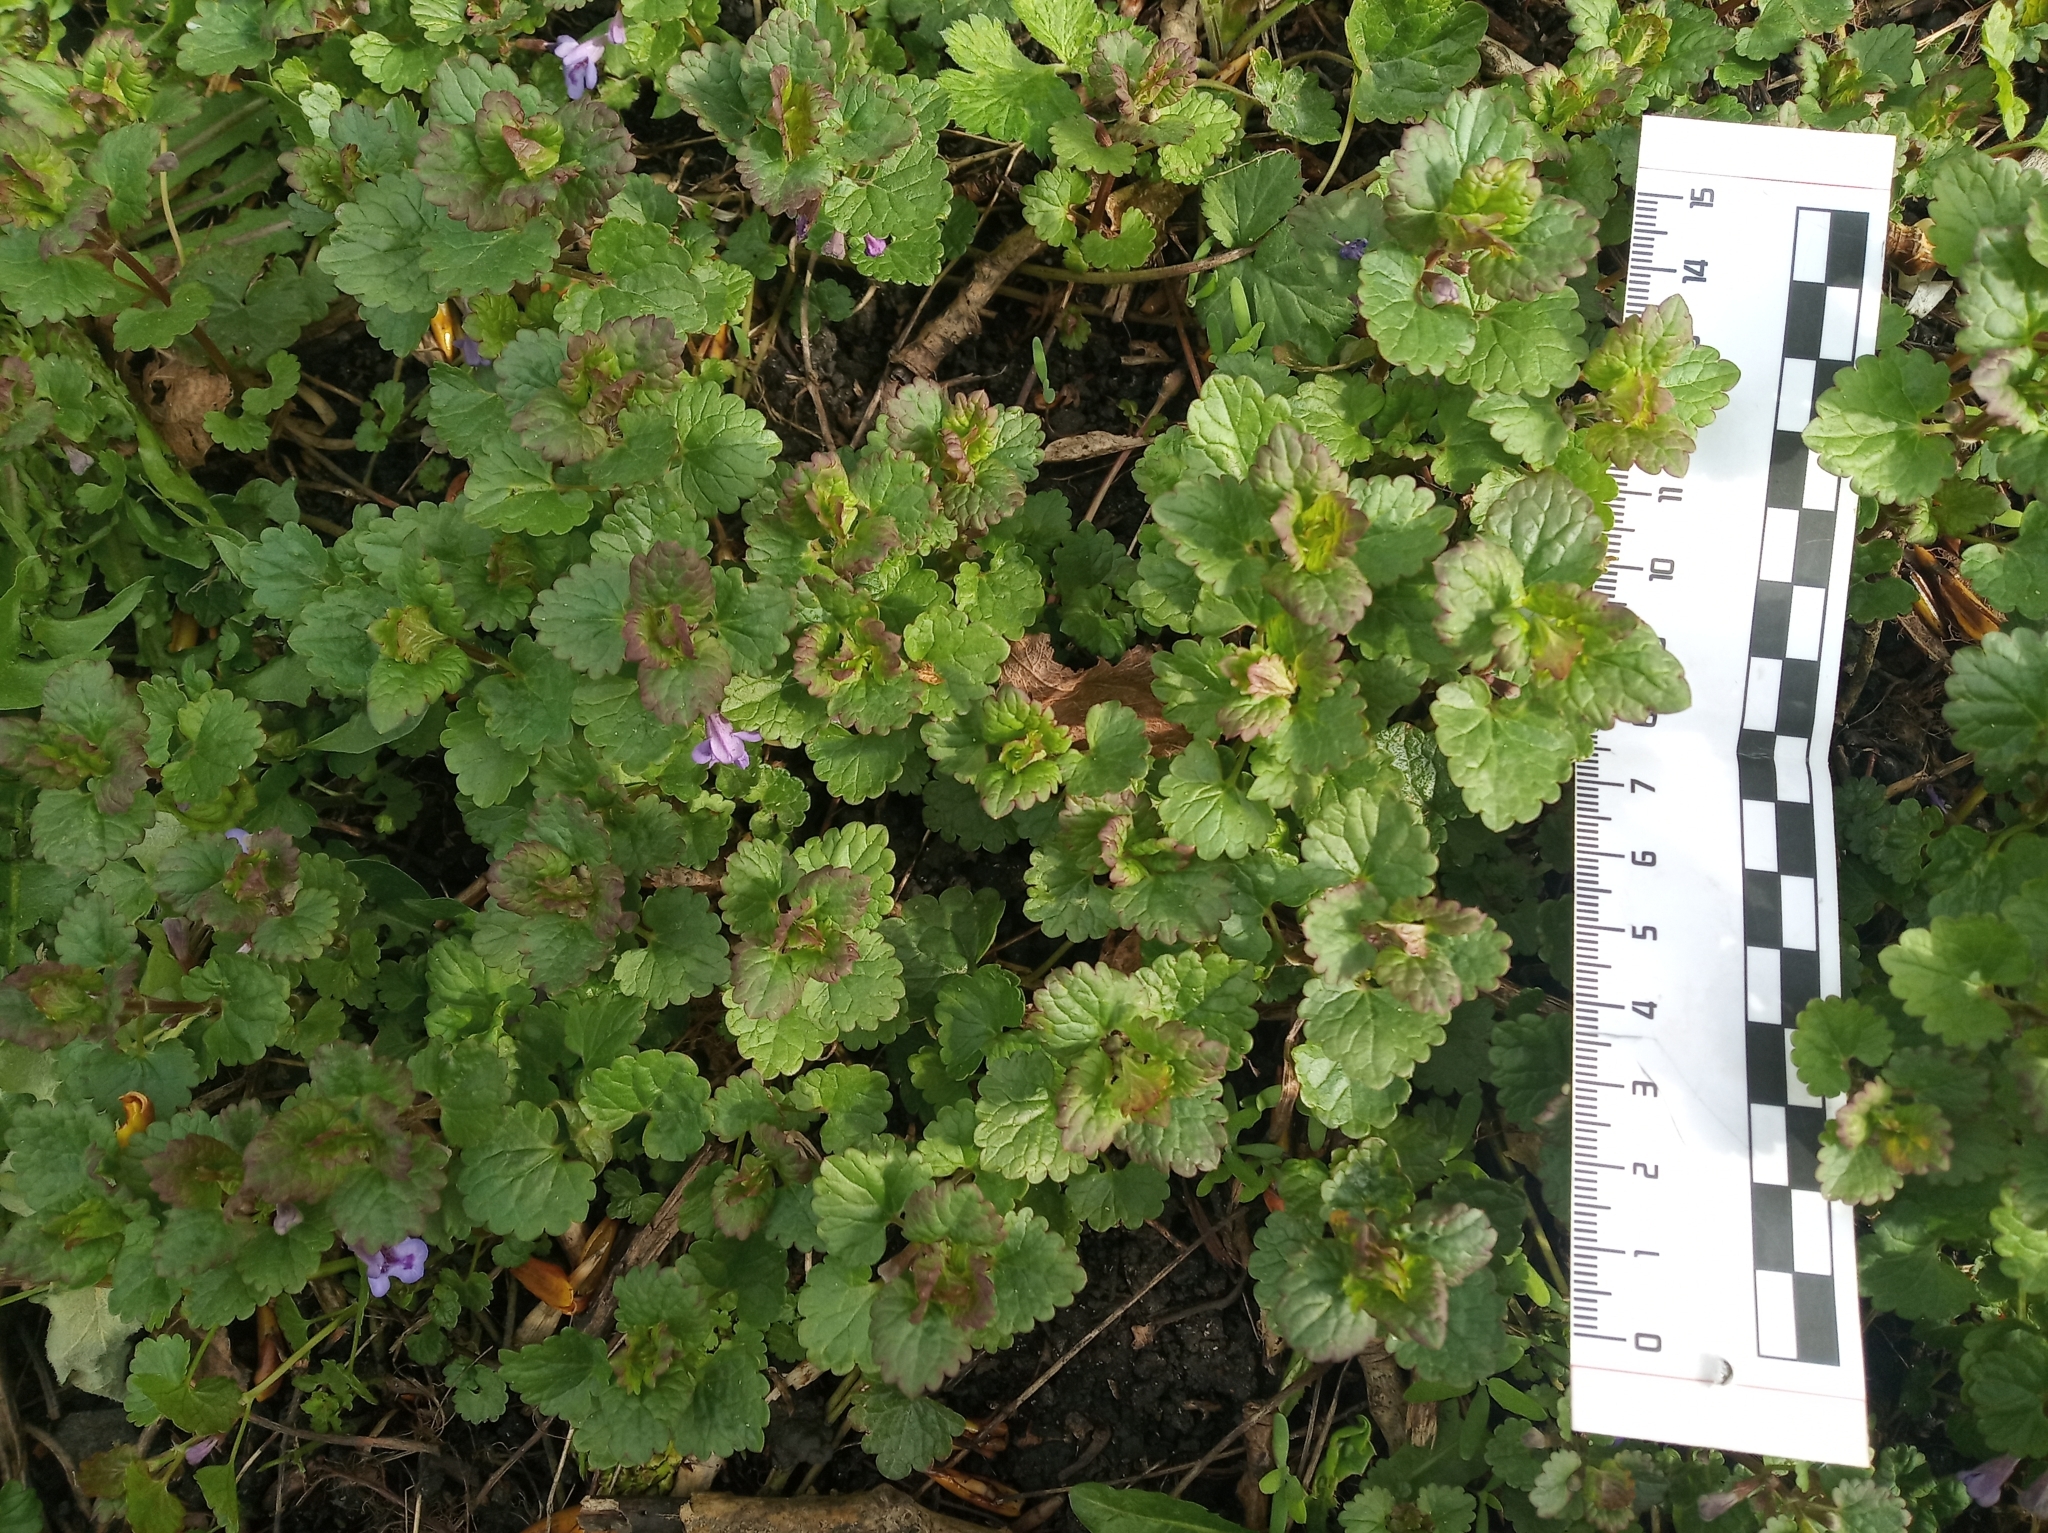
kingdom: Plantae
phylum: Tracheophyta
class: Magnoliopsida
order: Lamiales
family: Lamiaceae
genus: Glechoma
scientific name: Glechoma hederacea
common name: Ground ivy
